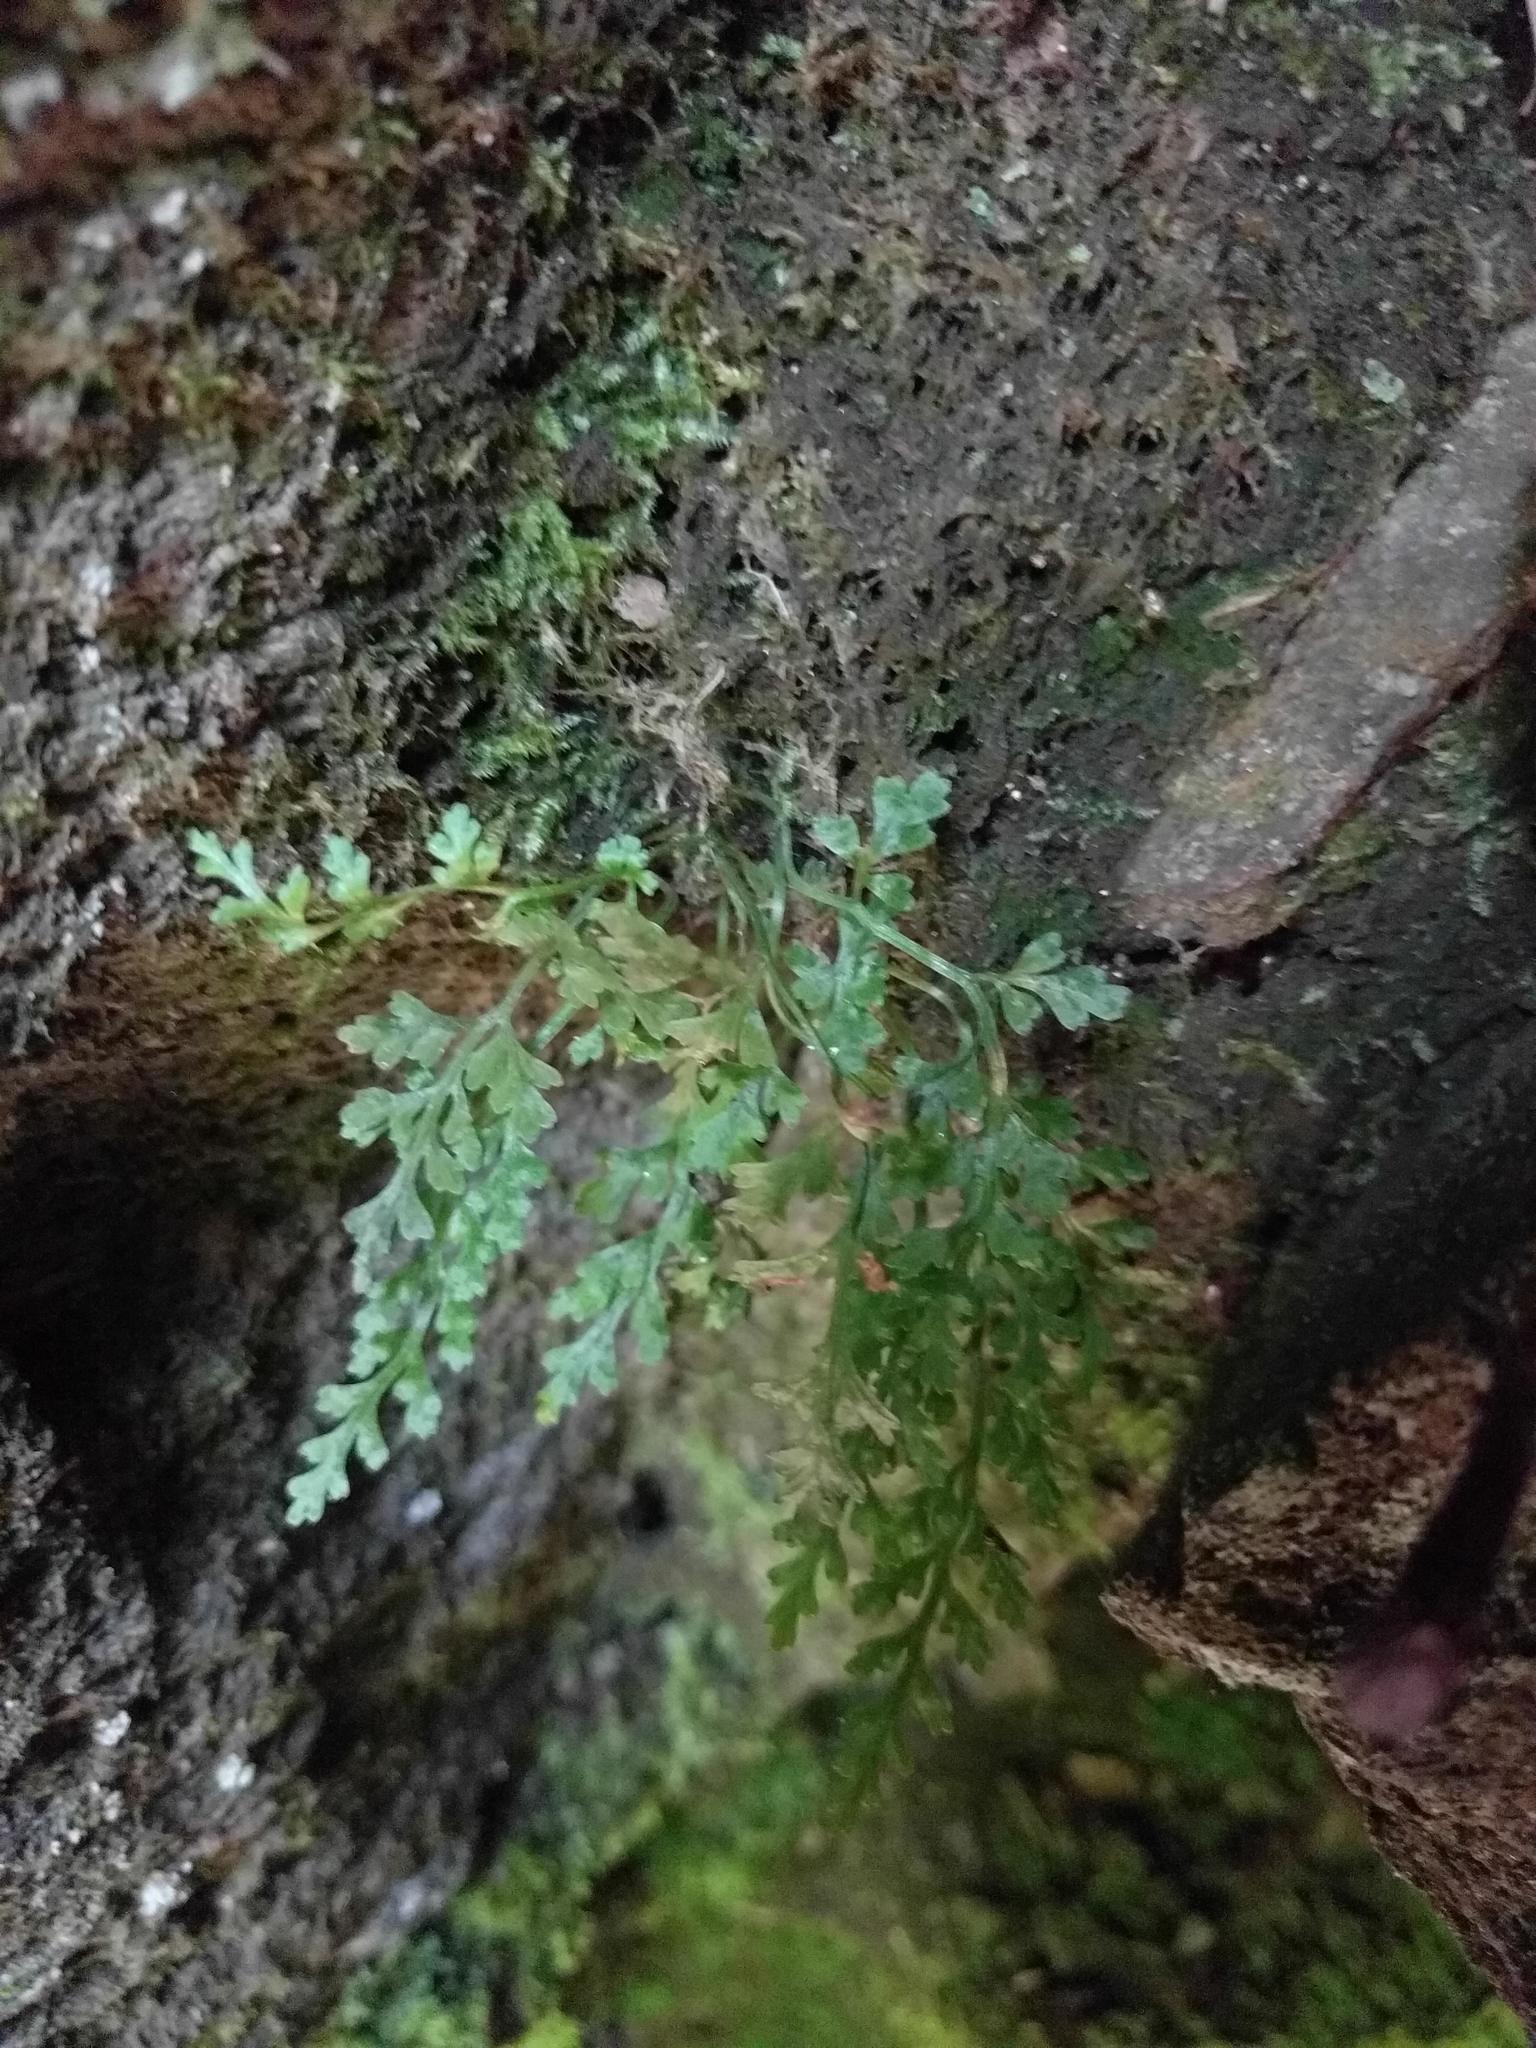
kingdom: Plantae
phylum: Tracheophyta
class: Polypodiopsida
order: Polypodiales
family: Aspleniaceae
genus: Asplenium
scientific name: Asplenium montanum
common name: Mountain spleenwort
